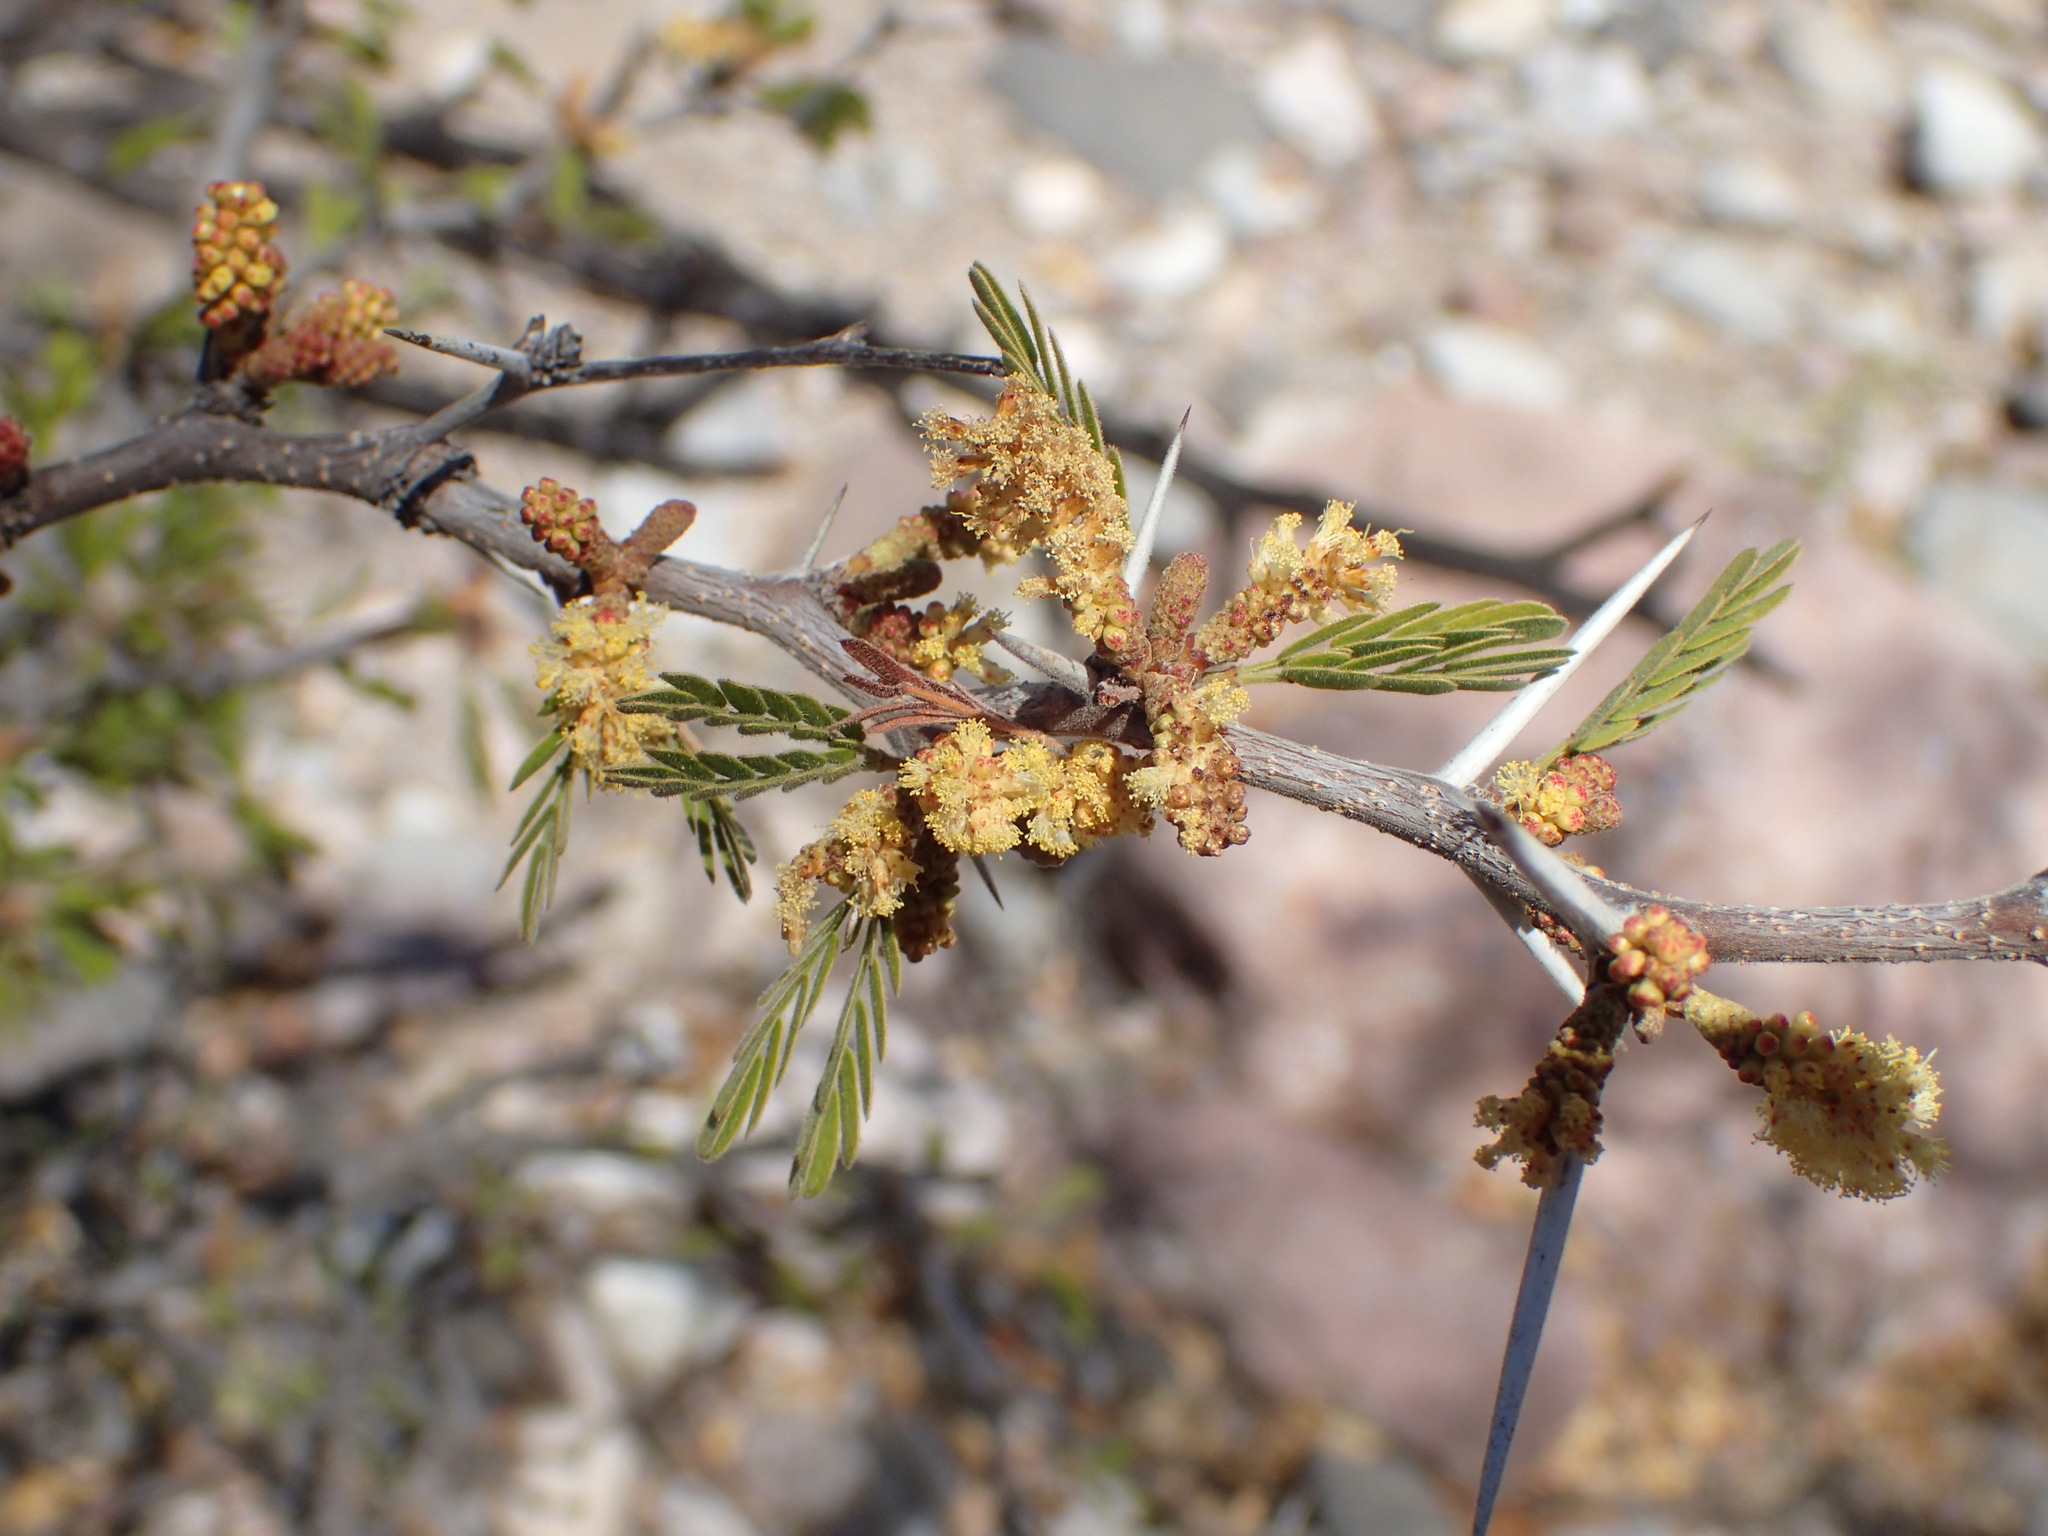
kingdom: Plantae
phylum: Tracheophyta
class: Magnoliopsida
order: Fabales
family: Fabaceae
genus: Vachellia
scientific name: Vachellia brandegeana
